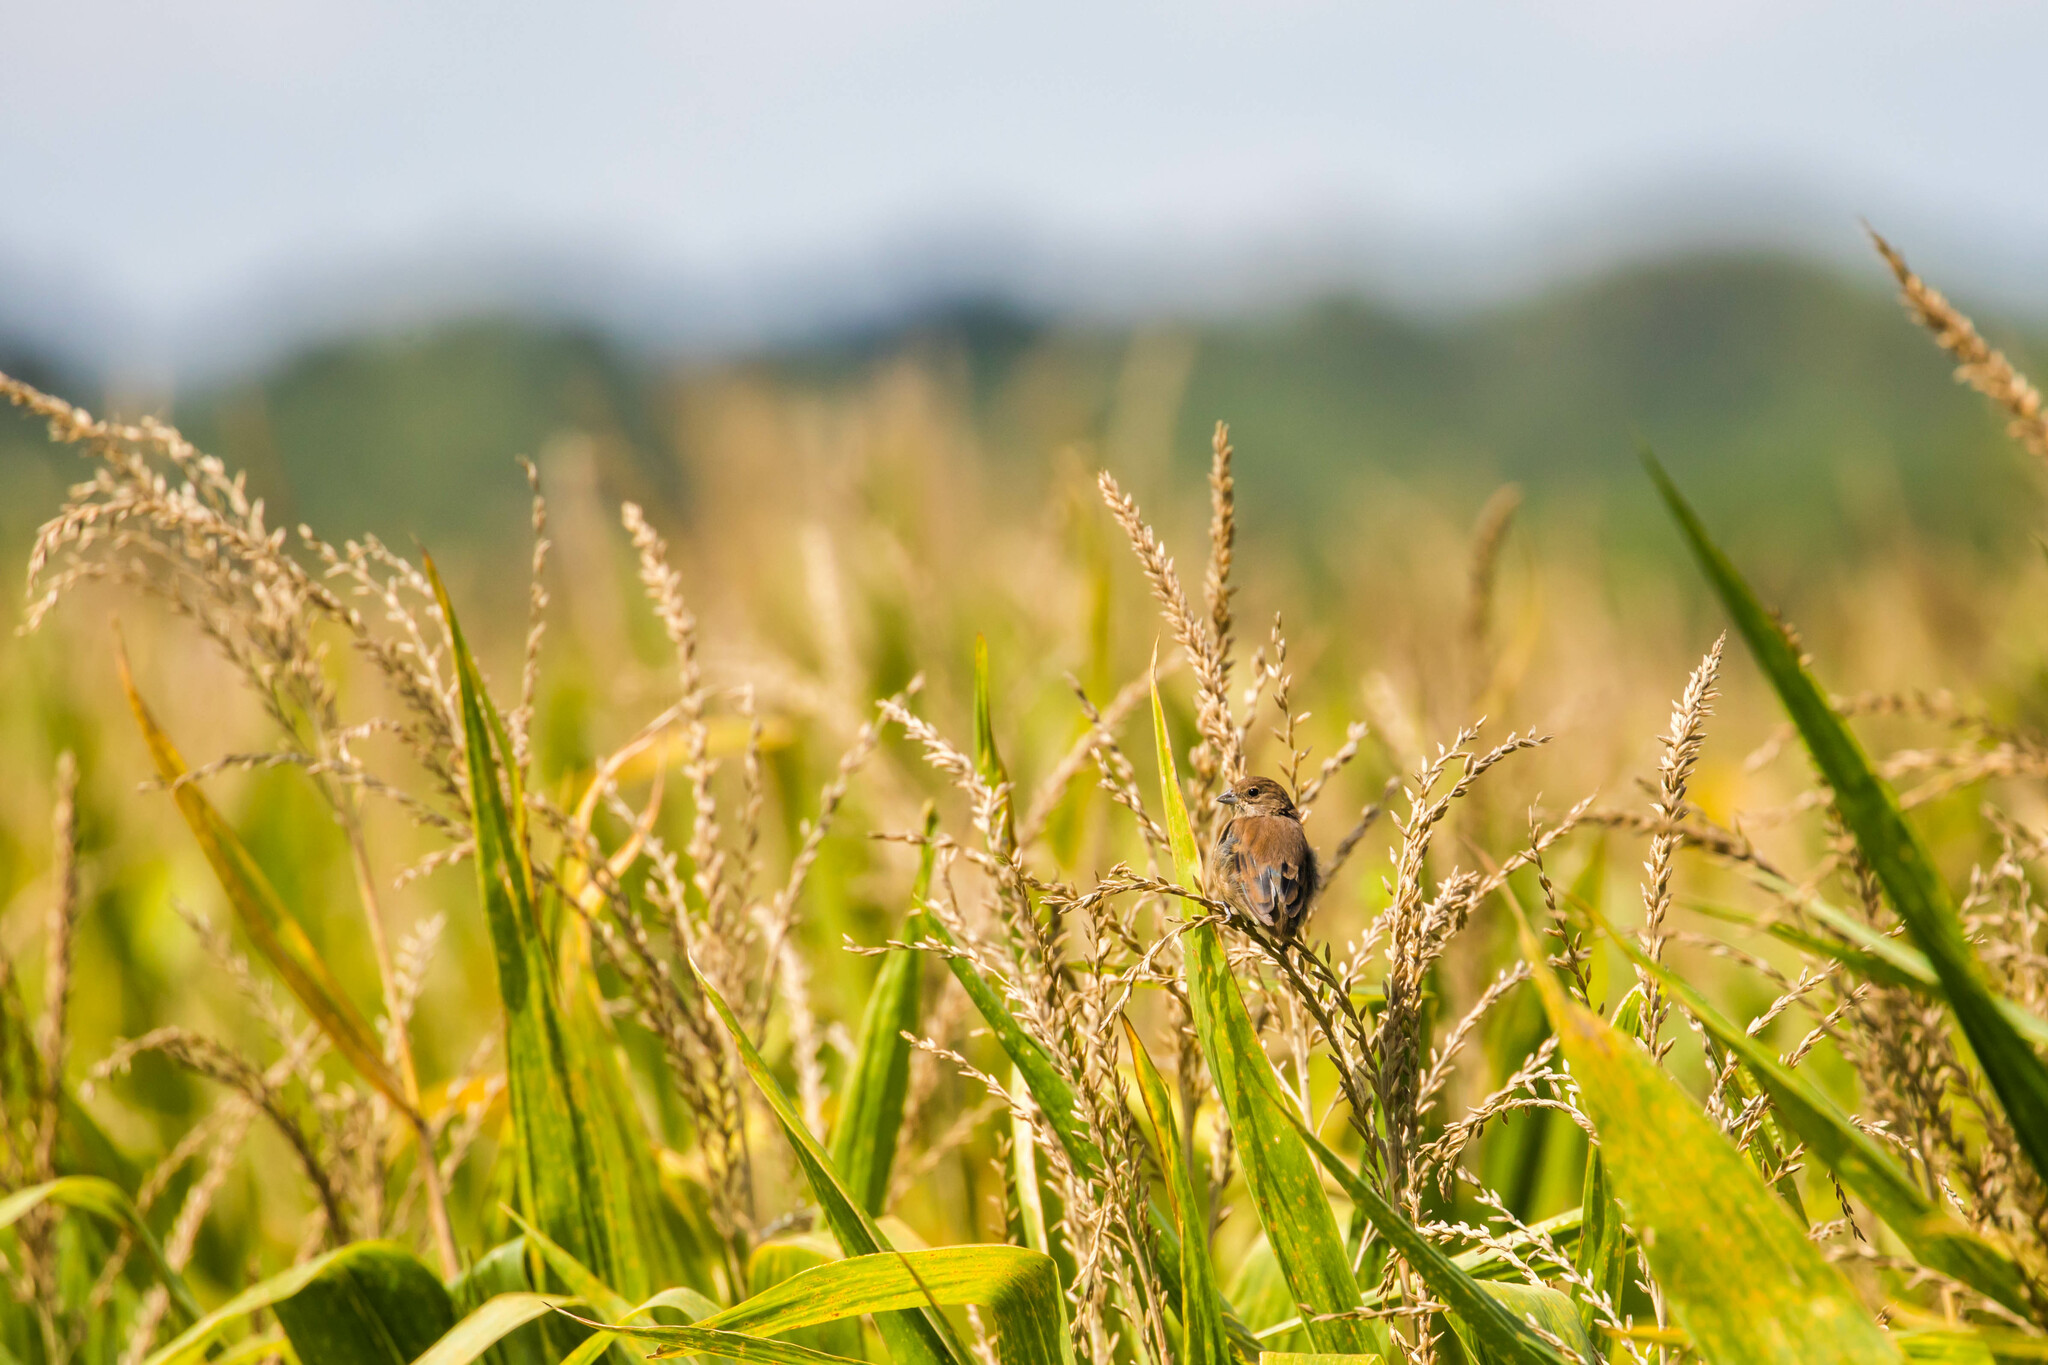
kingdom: Animalia
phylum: Chordata
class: Aves
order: Passeriformes
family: Cardinalidae
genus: Passerina
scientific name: Passerina cyanea
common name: Indigo bunting
